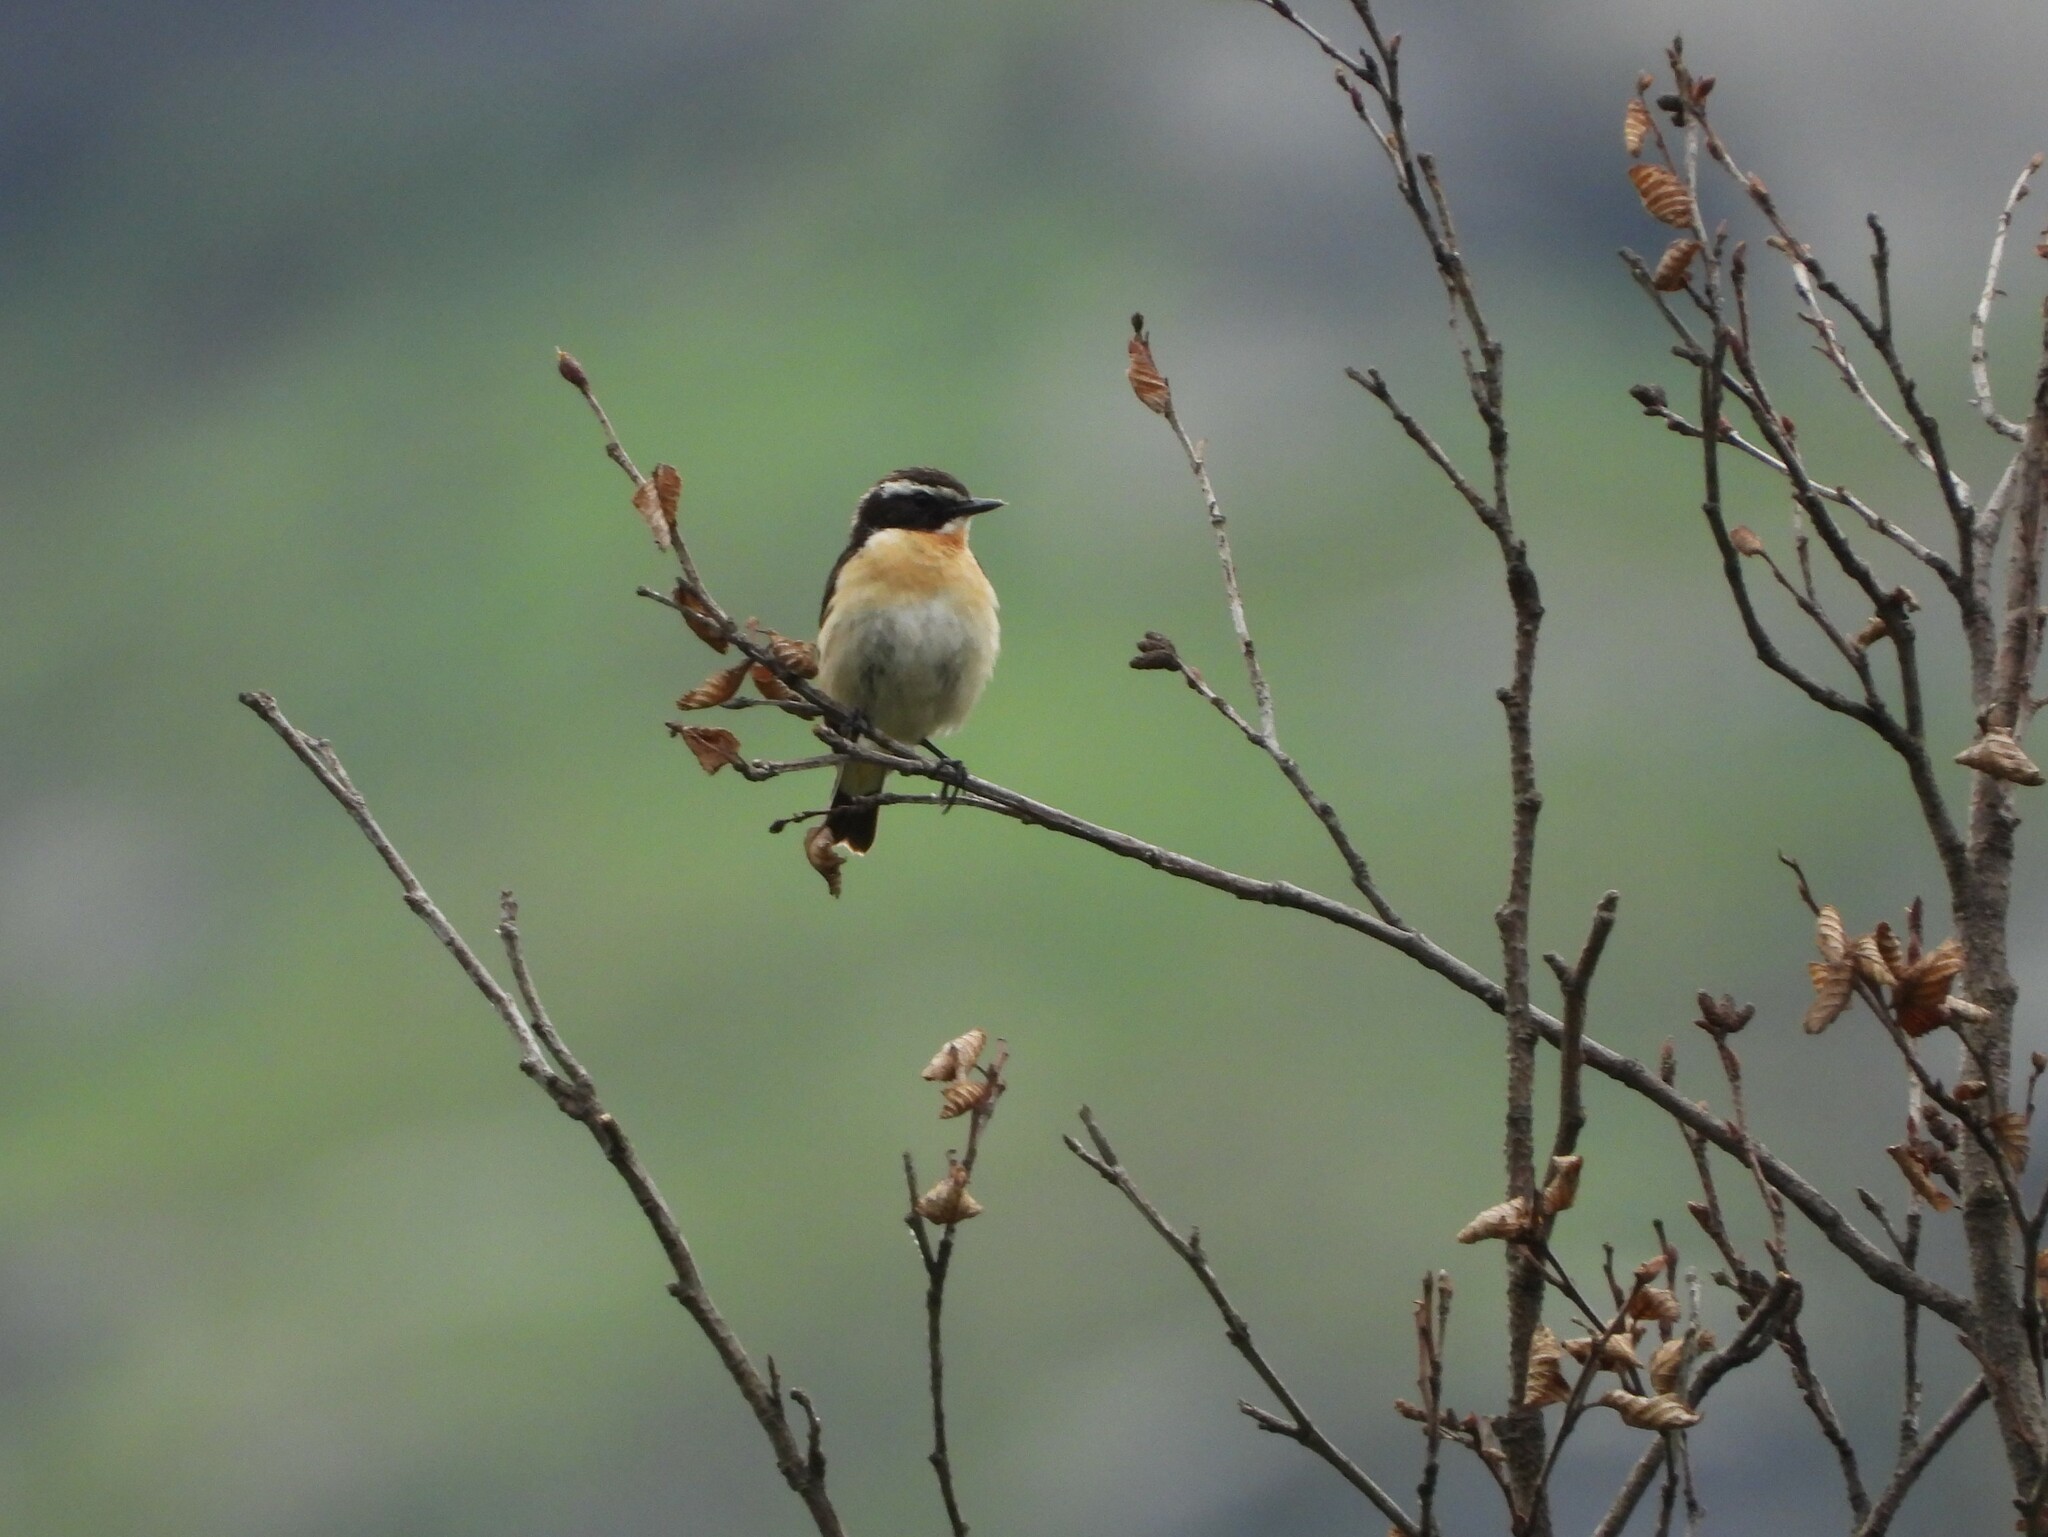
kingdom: Animalia
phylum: Chordata
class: Aves
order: Passeriformes
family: Muscicapidae
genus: Saxicola
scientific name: Saxicola rubetra
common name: Whinchat
